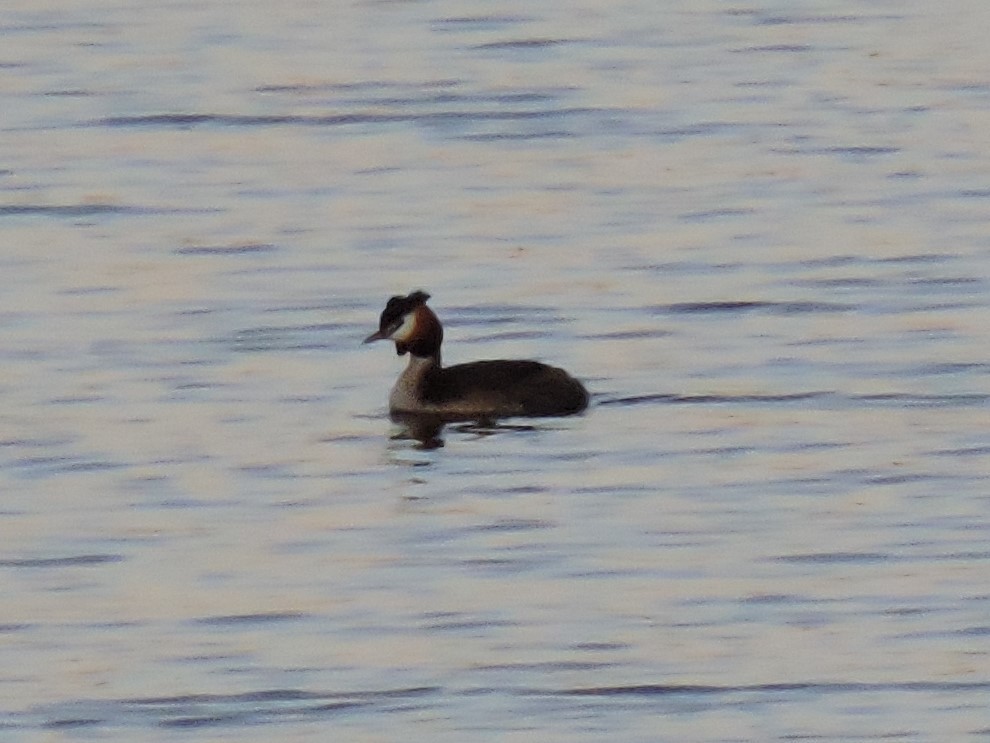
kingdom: Animalia
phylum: Chordata
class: Aves
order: Podicipediformes
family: Podicipedidae
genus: Podiceps
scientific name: Podiceps cristatus
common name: Great crested grebe
